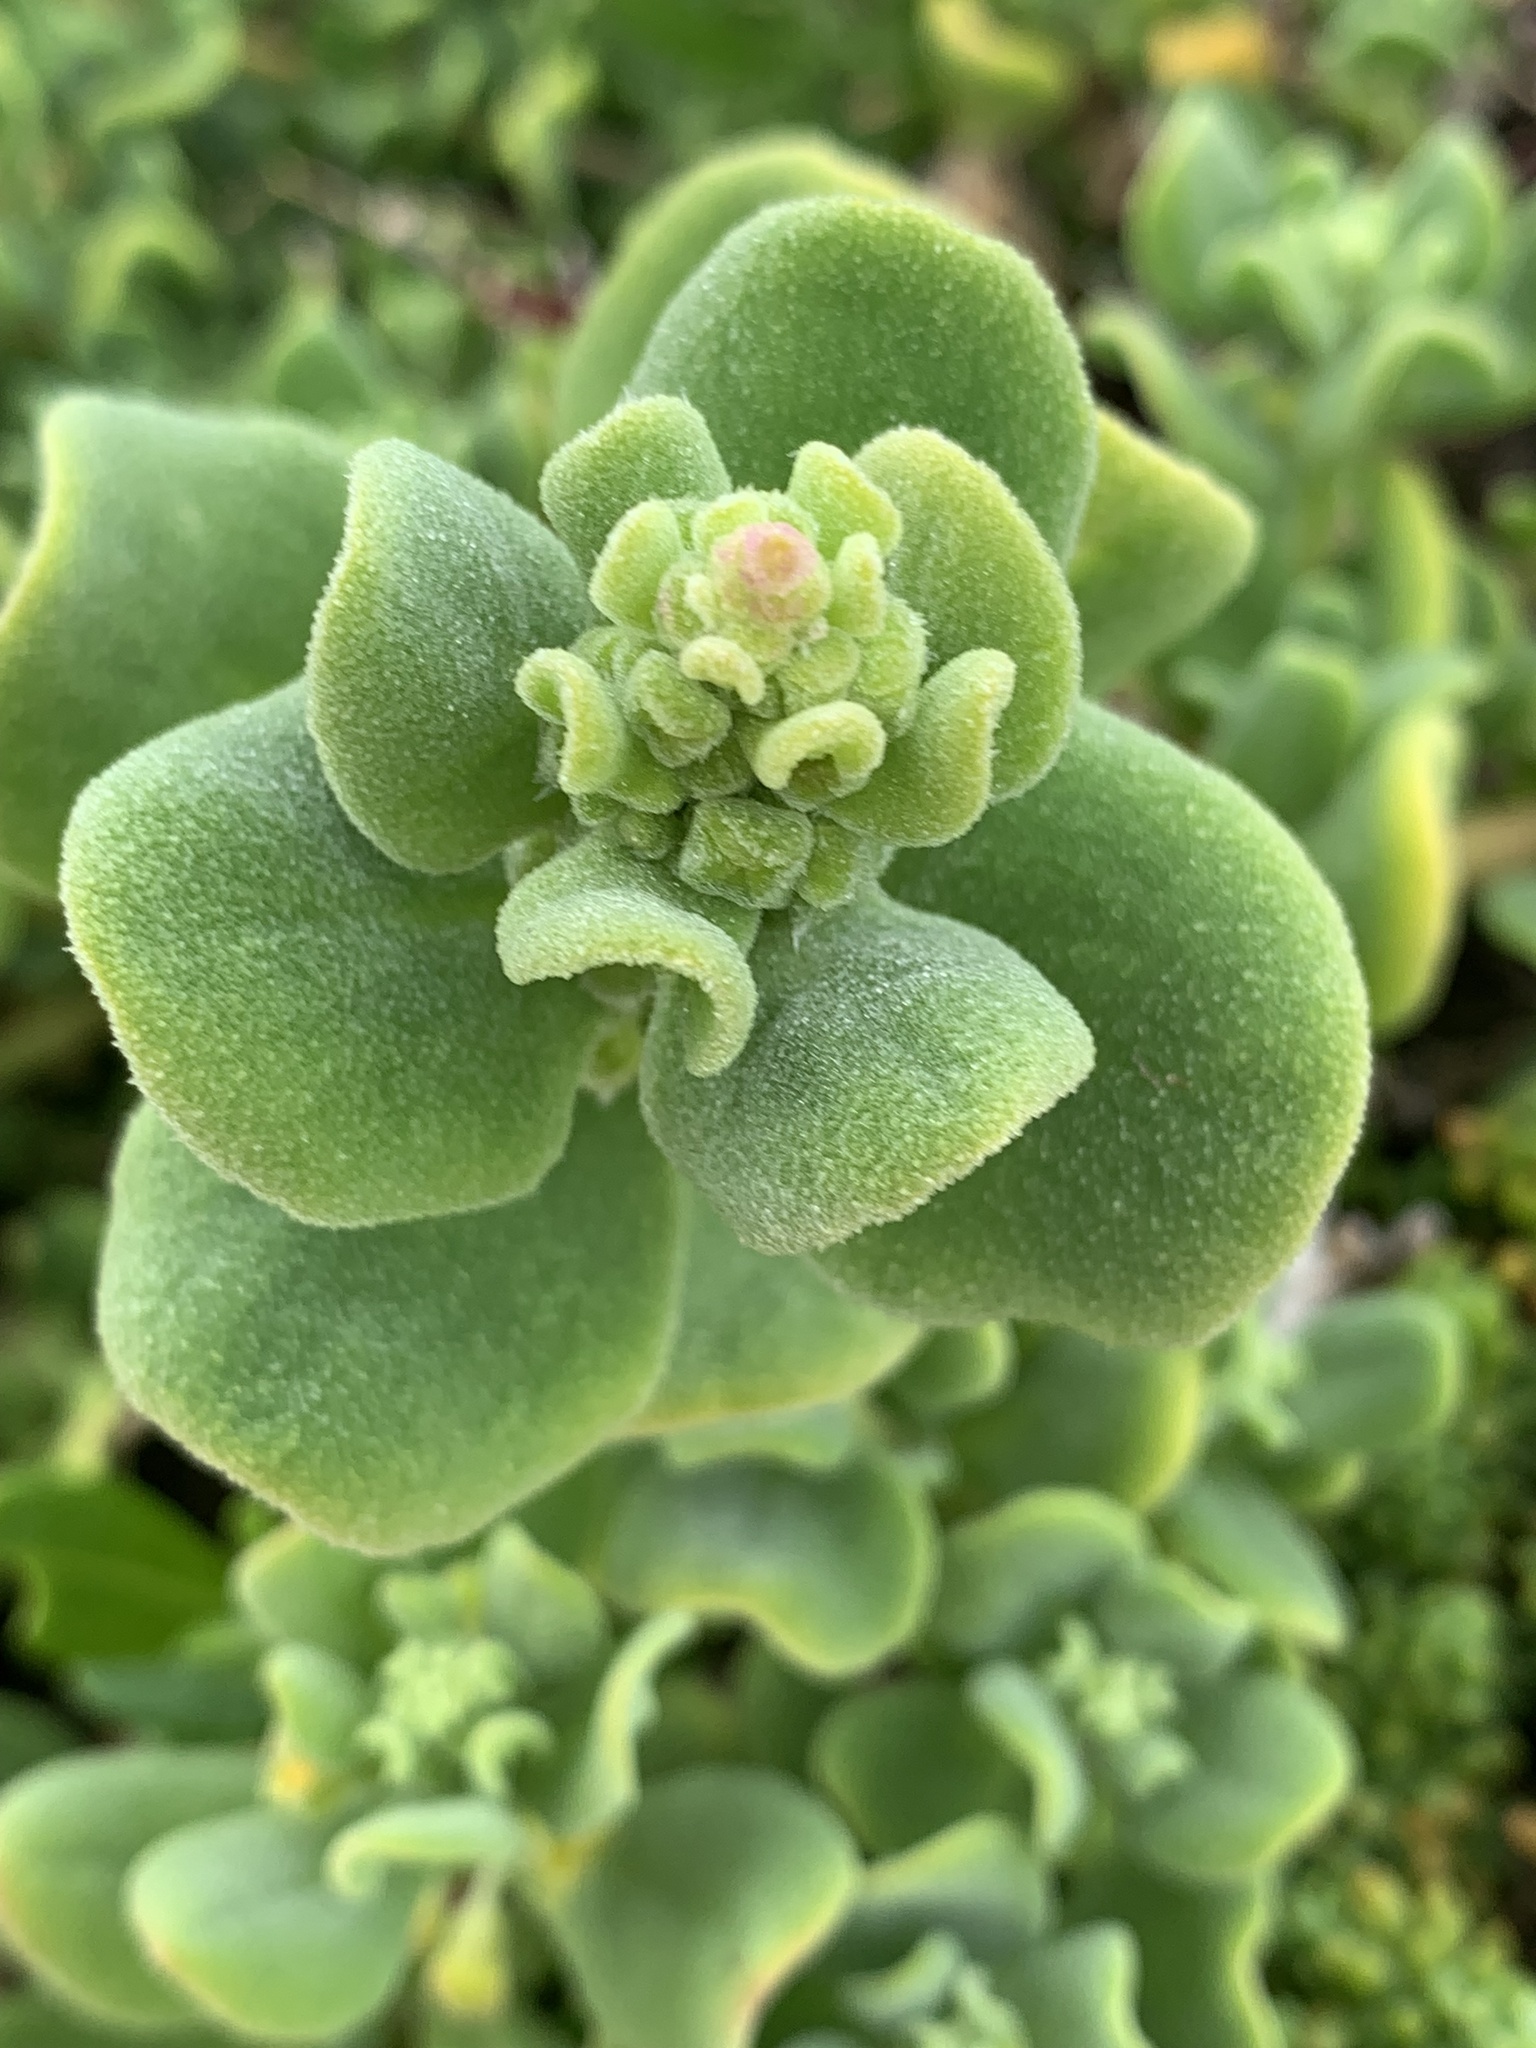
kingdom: Plantae
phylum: Tracheophyta
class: Magnoliopsida
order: Caryophyllales
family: Aizoaceae
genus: Tetragonia
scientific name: Tetragonia decumbens
